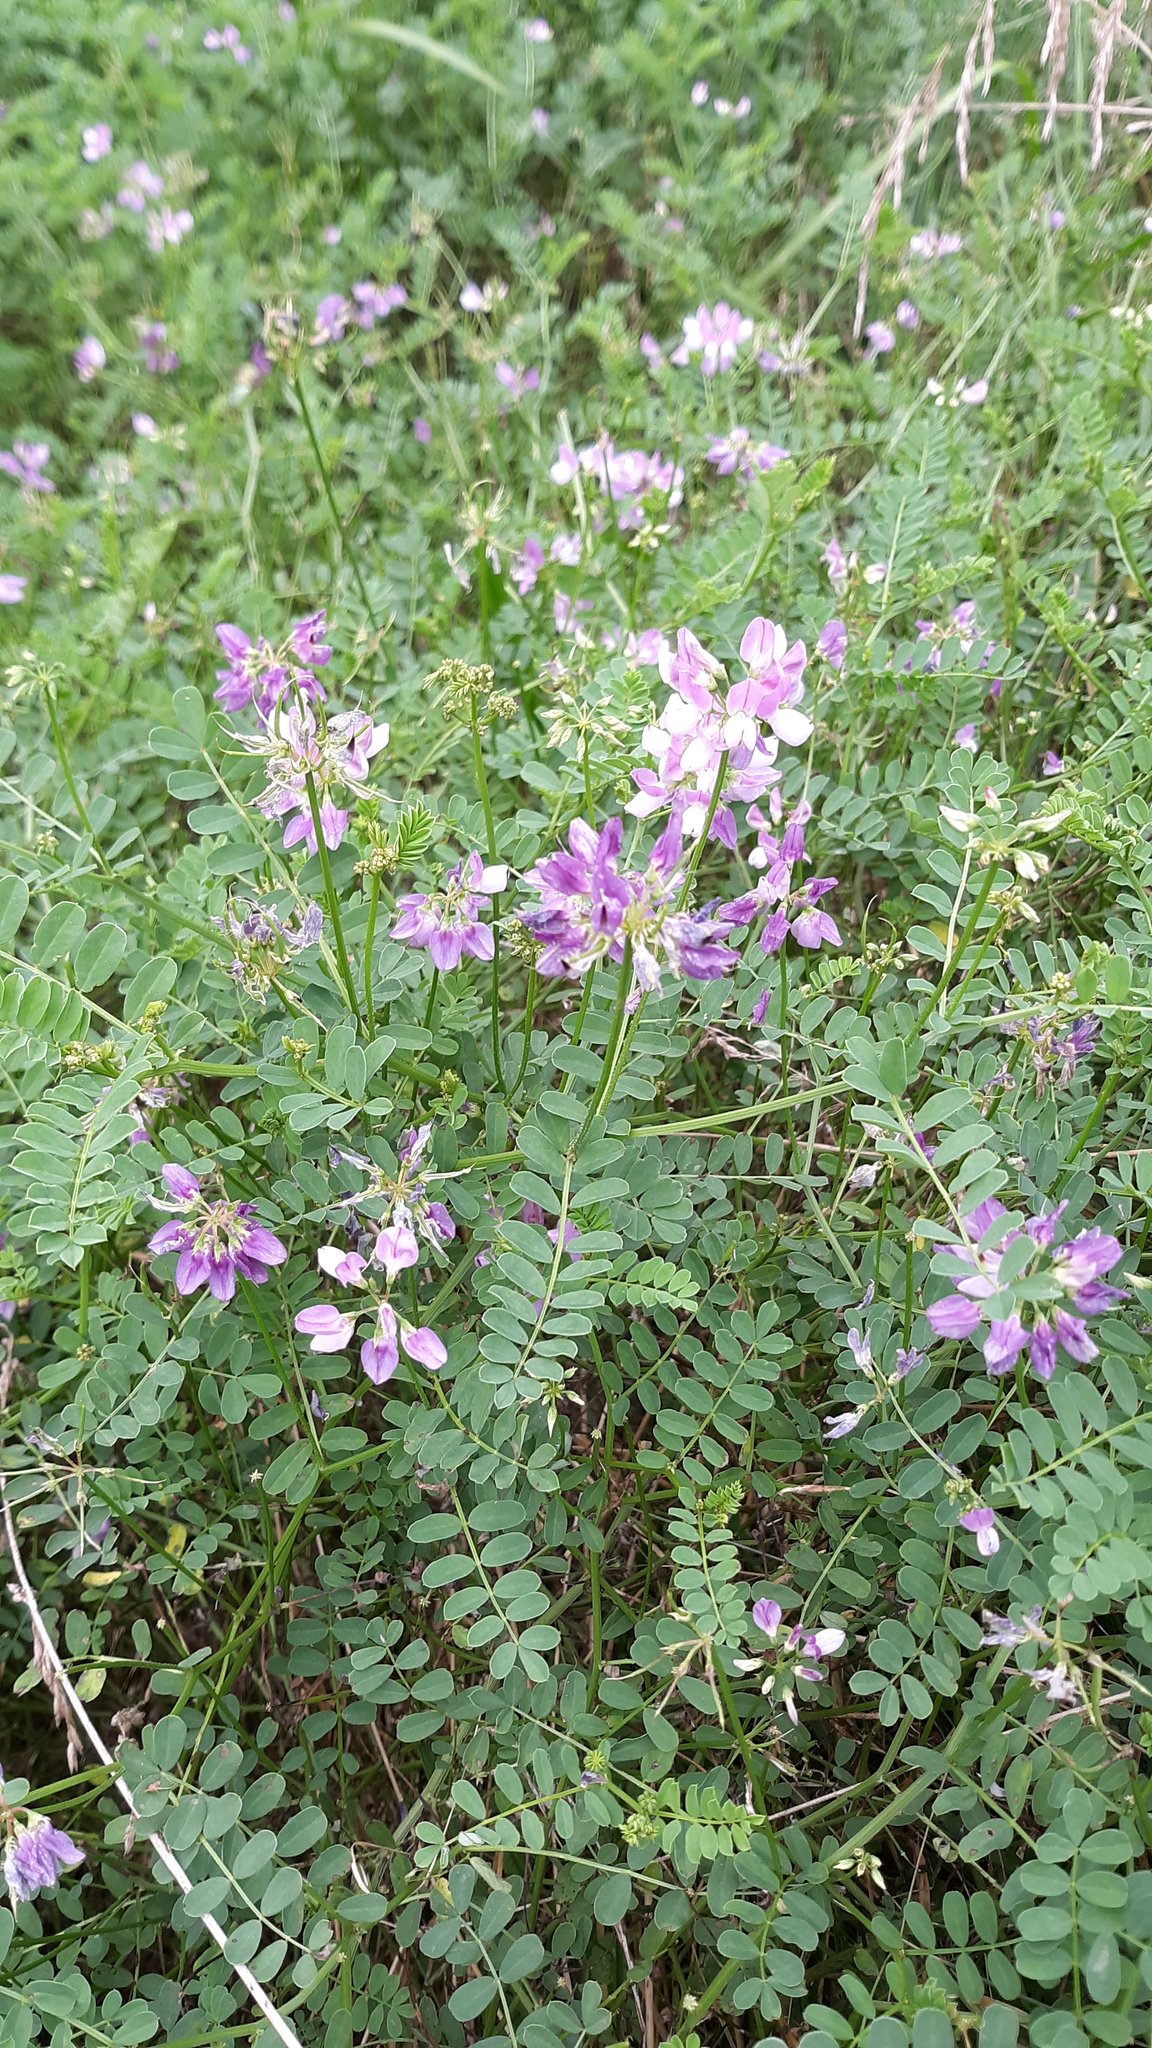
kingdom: Plantae
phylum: Tracheophyta
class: Magnoliopsida
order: Fabales
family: Fabaceae
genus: Coronilla
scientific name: Coronilla varia
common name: Crownvetch
